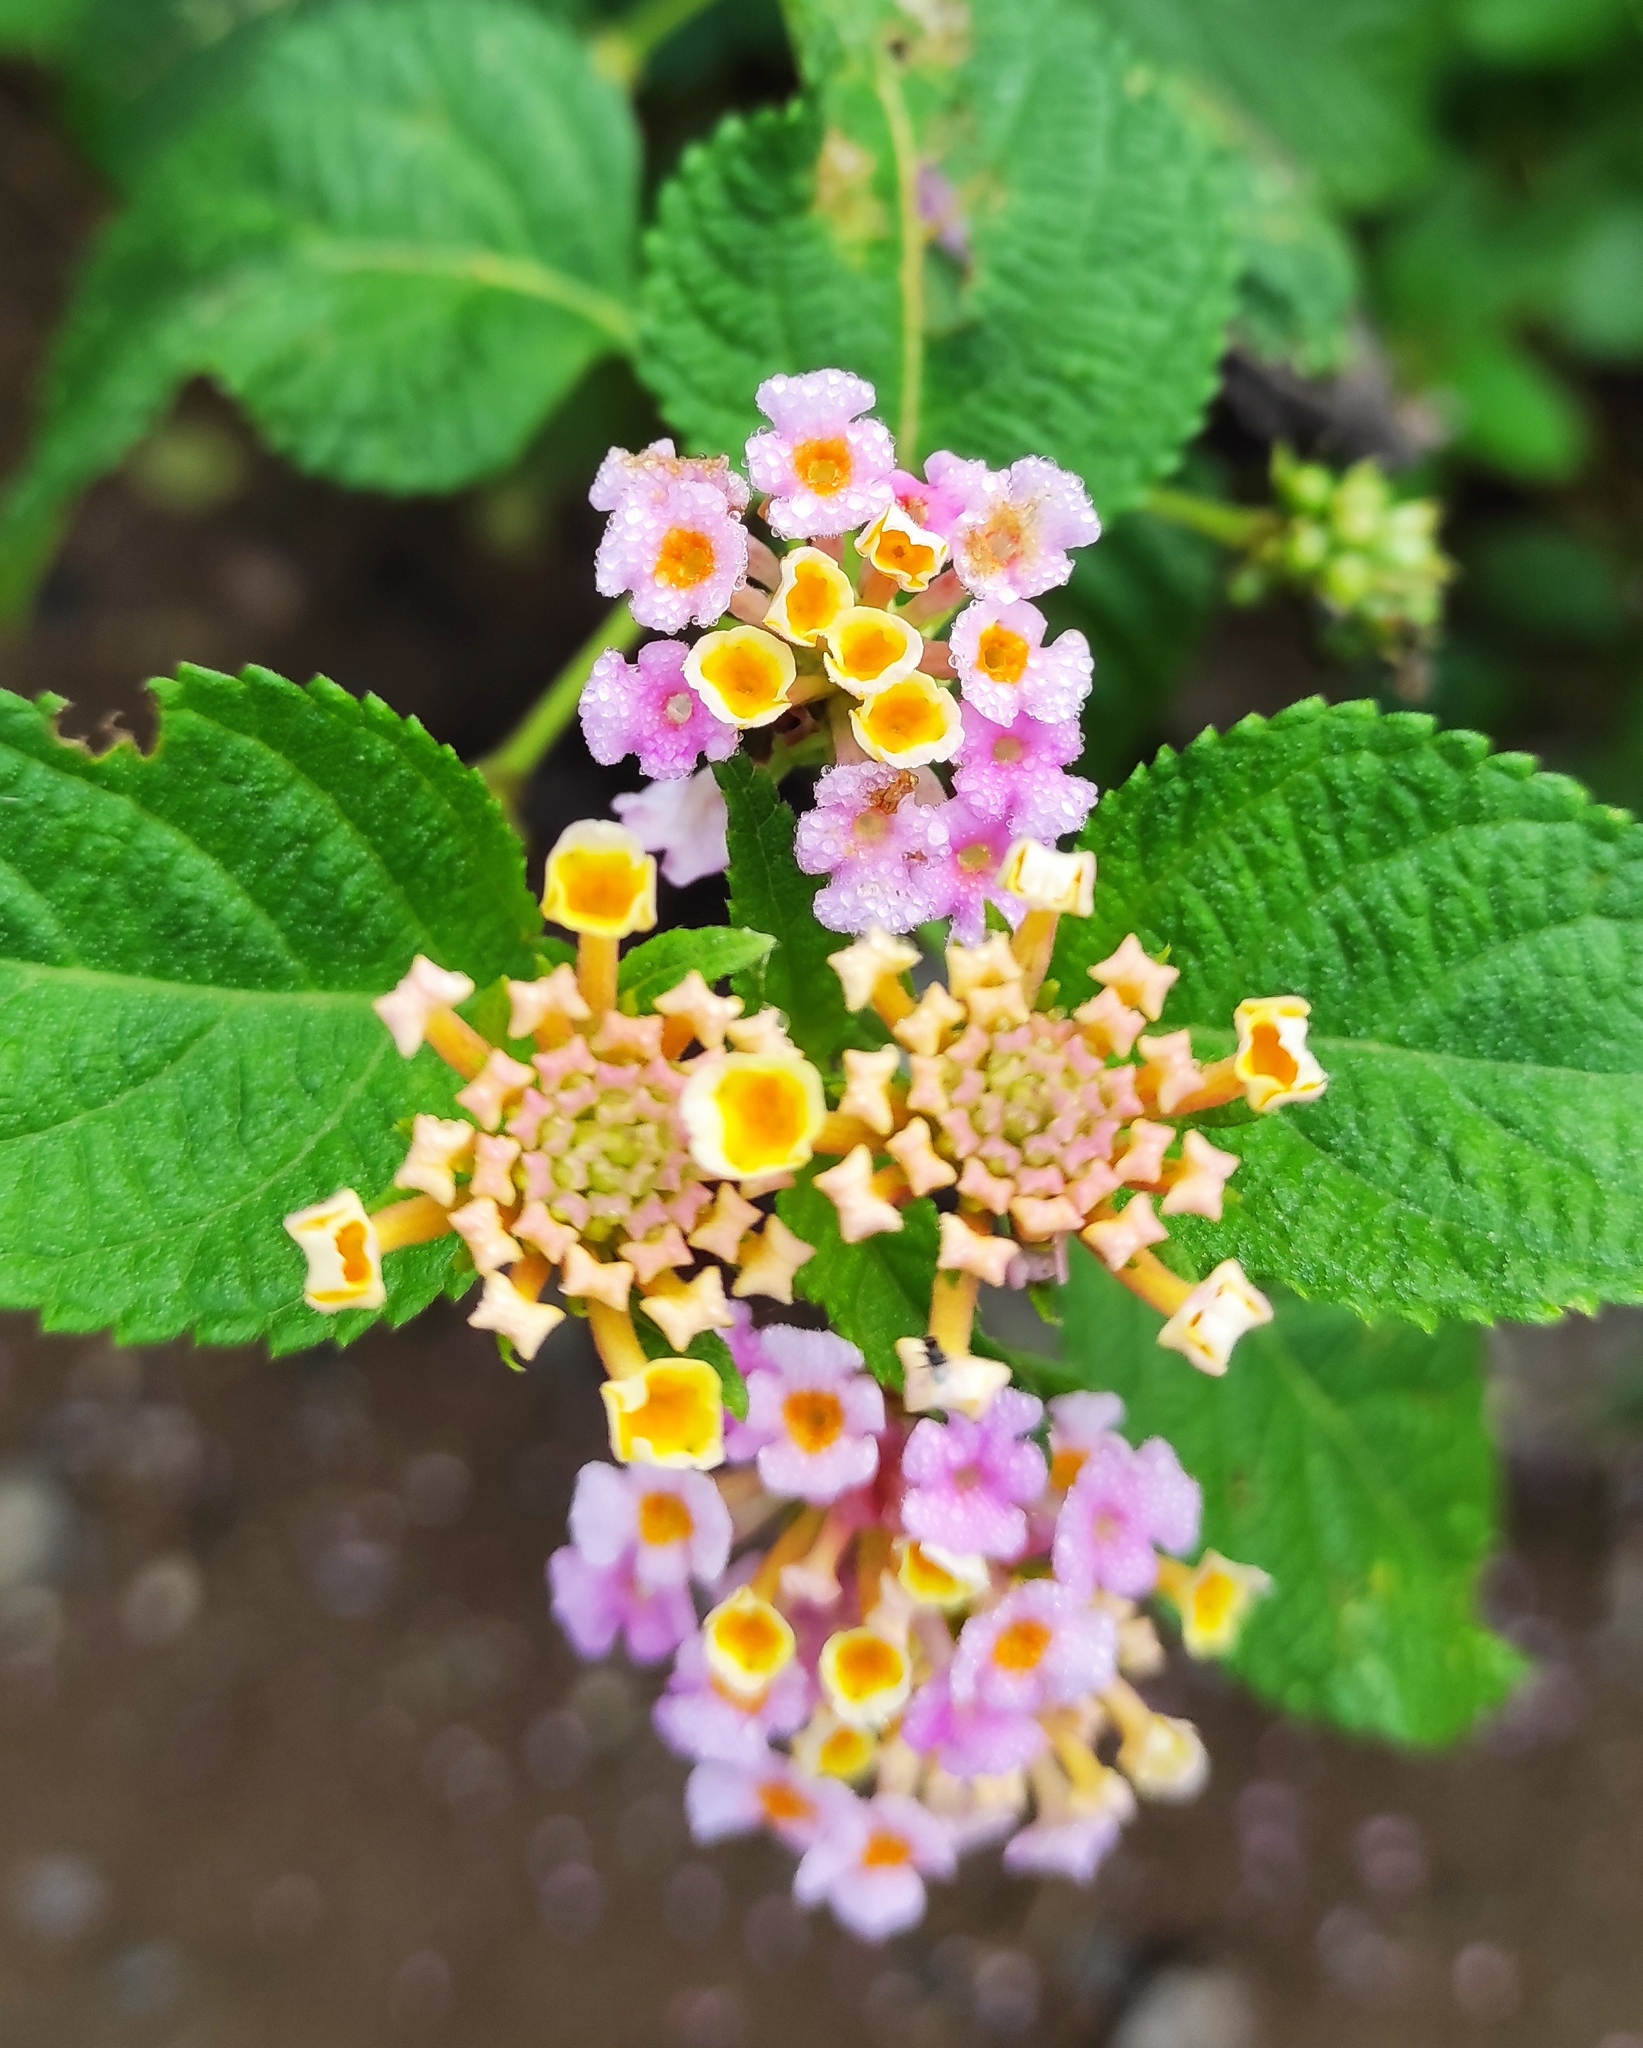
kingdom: Plantae
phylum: Tracheophyta
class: Magnoliopsida
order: Lamiales
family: Verbenaceae
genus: Lantana
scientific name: Lantana strigocamara
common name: Lantana
